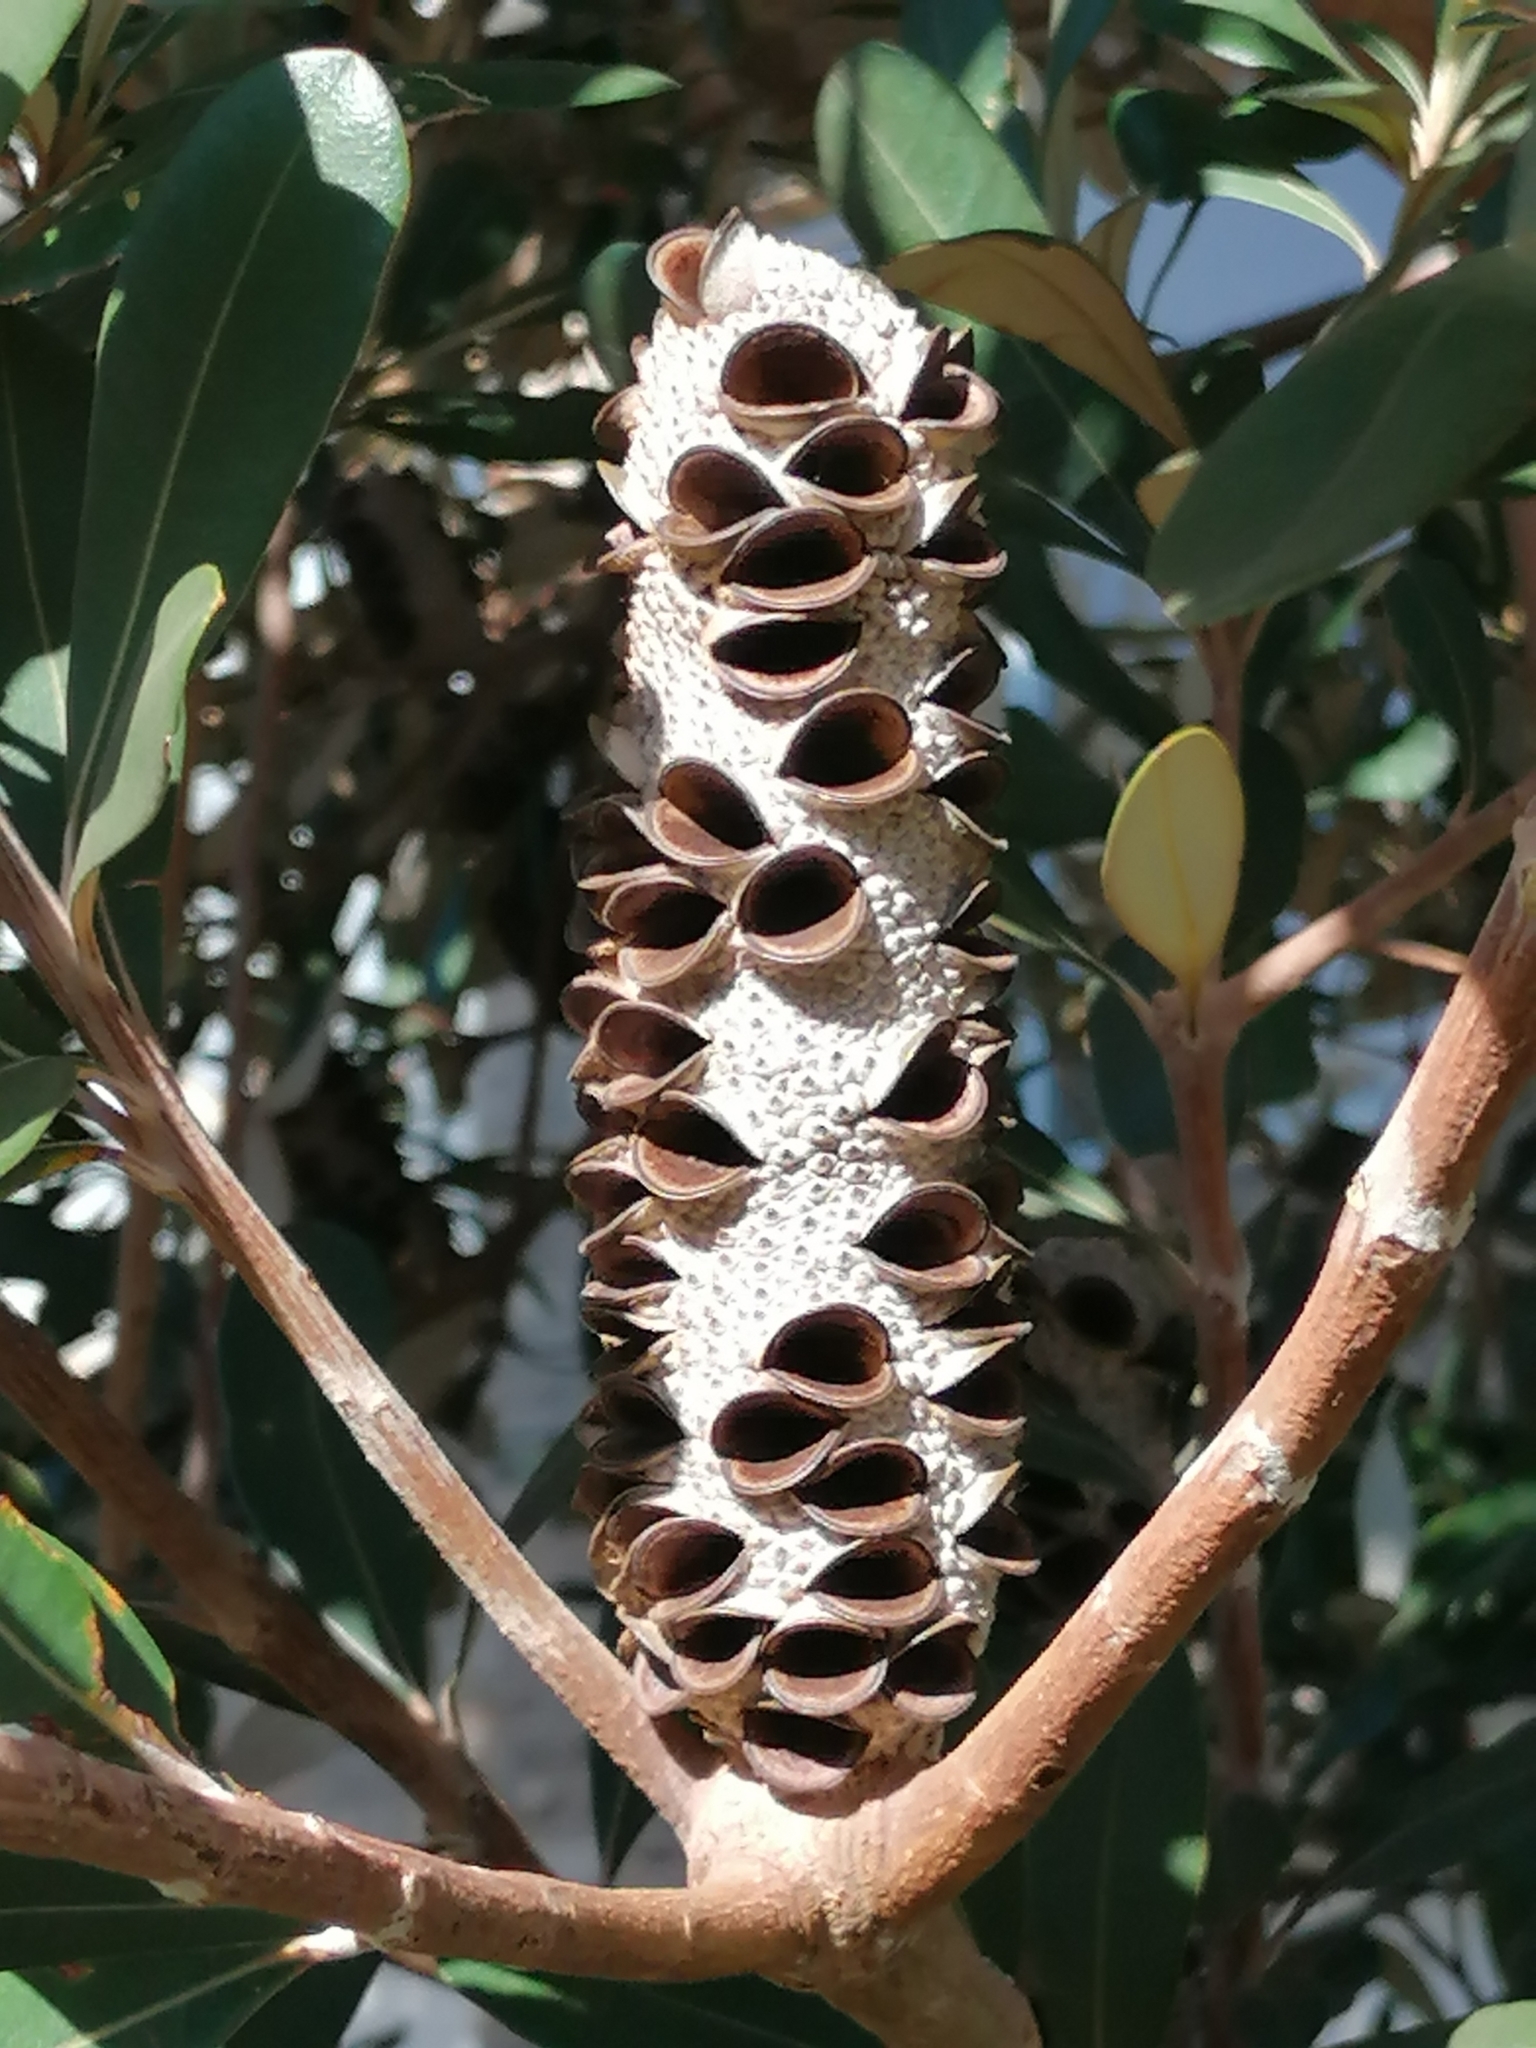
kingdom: Plantae
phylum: Tracheophyta
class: Magnoliopsida
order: Proteales
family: Proteaceae
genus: Banksia
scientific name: Banksia integrifolia
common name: White-honeysuckle
